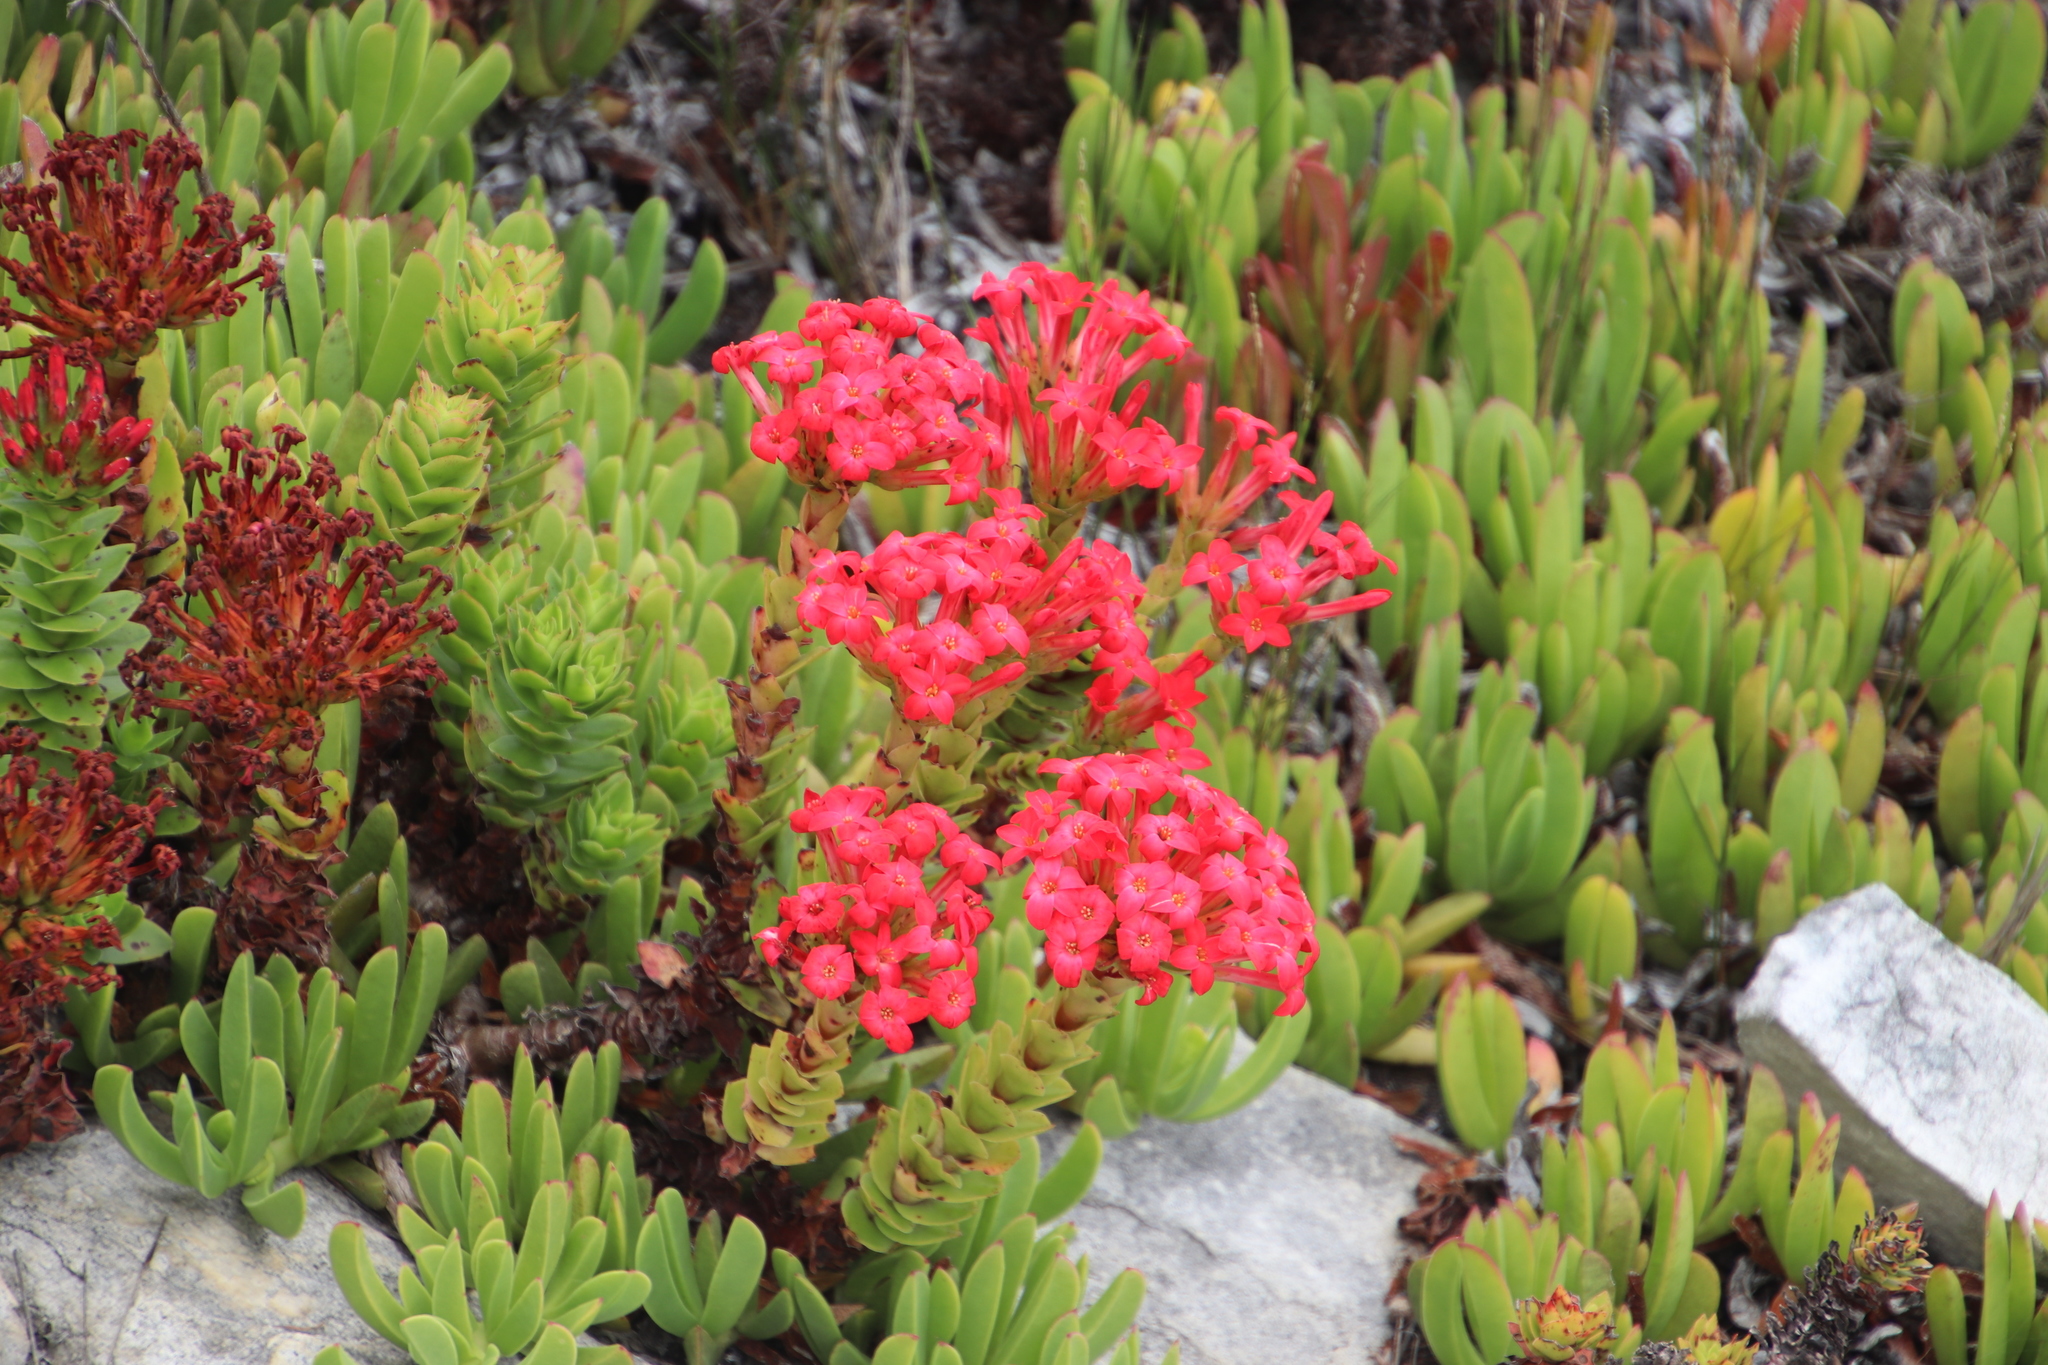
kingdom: Plantae
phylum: Tracheophyta
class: Magnoliopsida
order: Saxifragales
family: Crassulaceae
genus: Crassula
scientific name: Crassula coccinea
